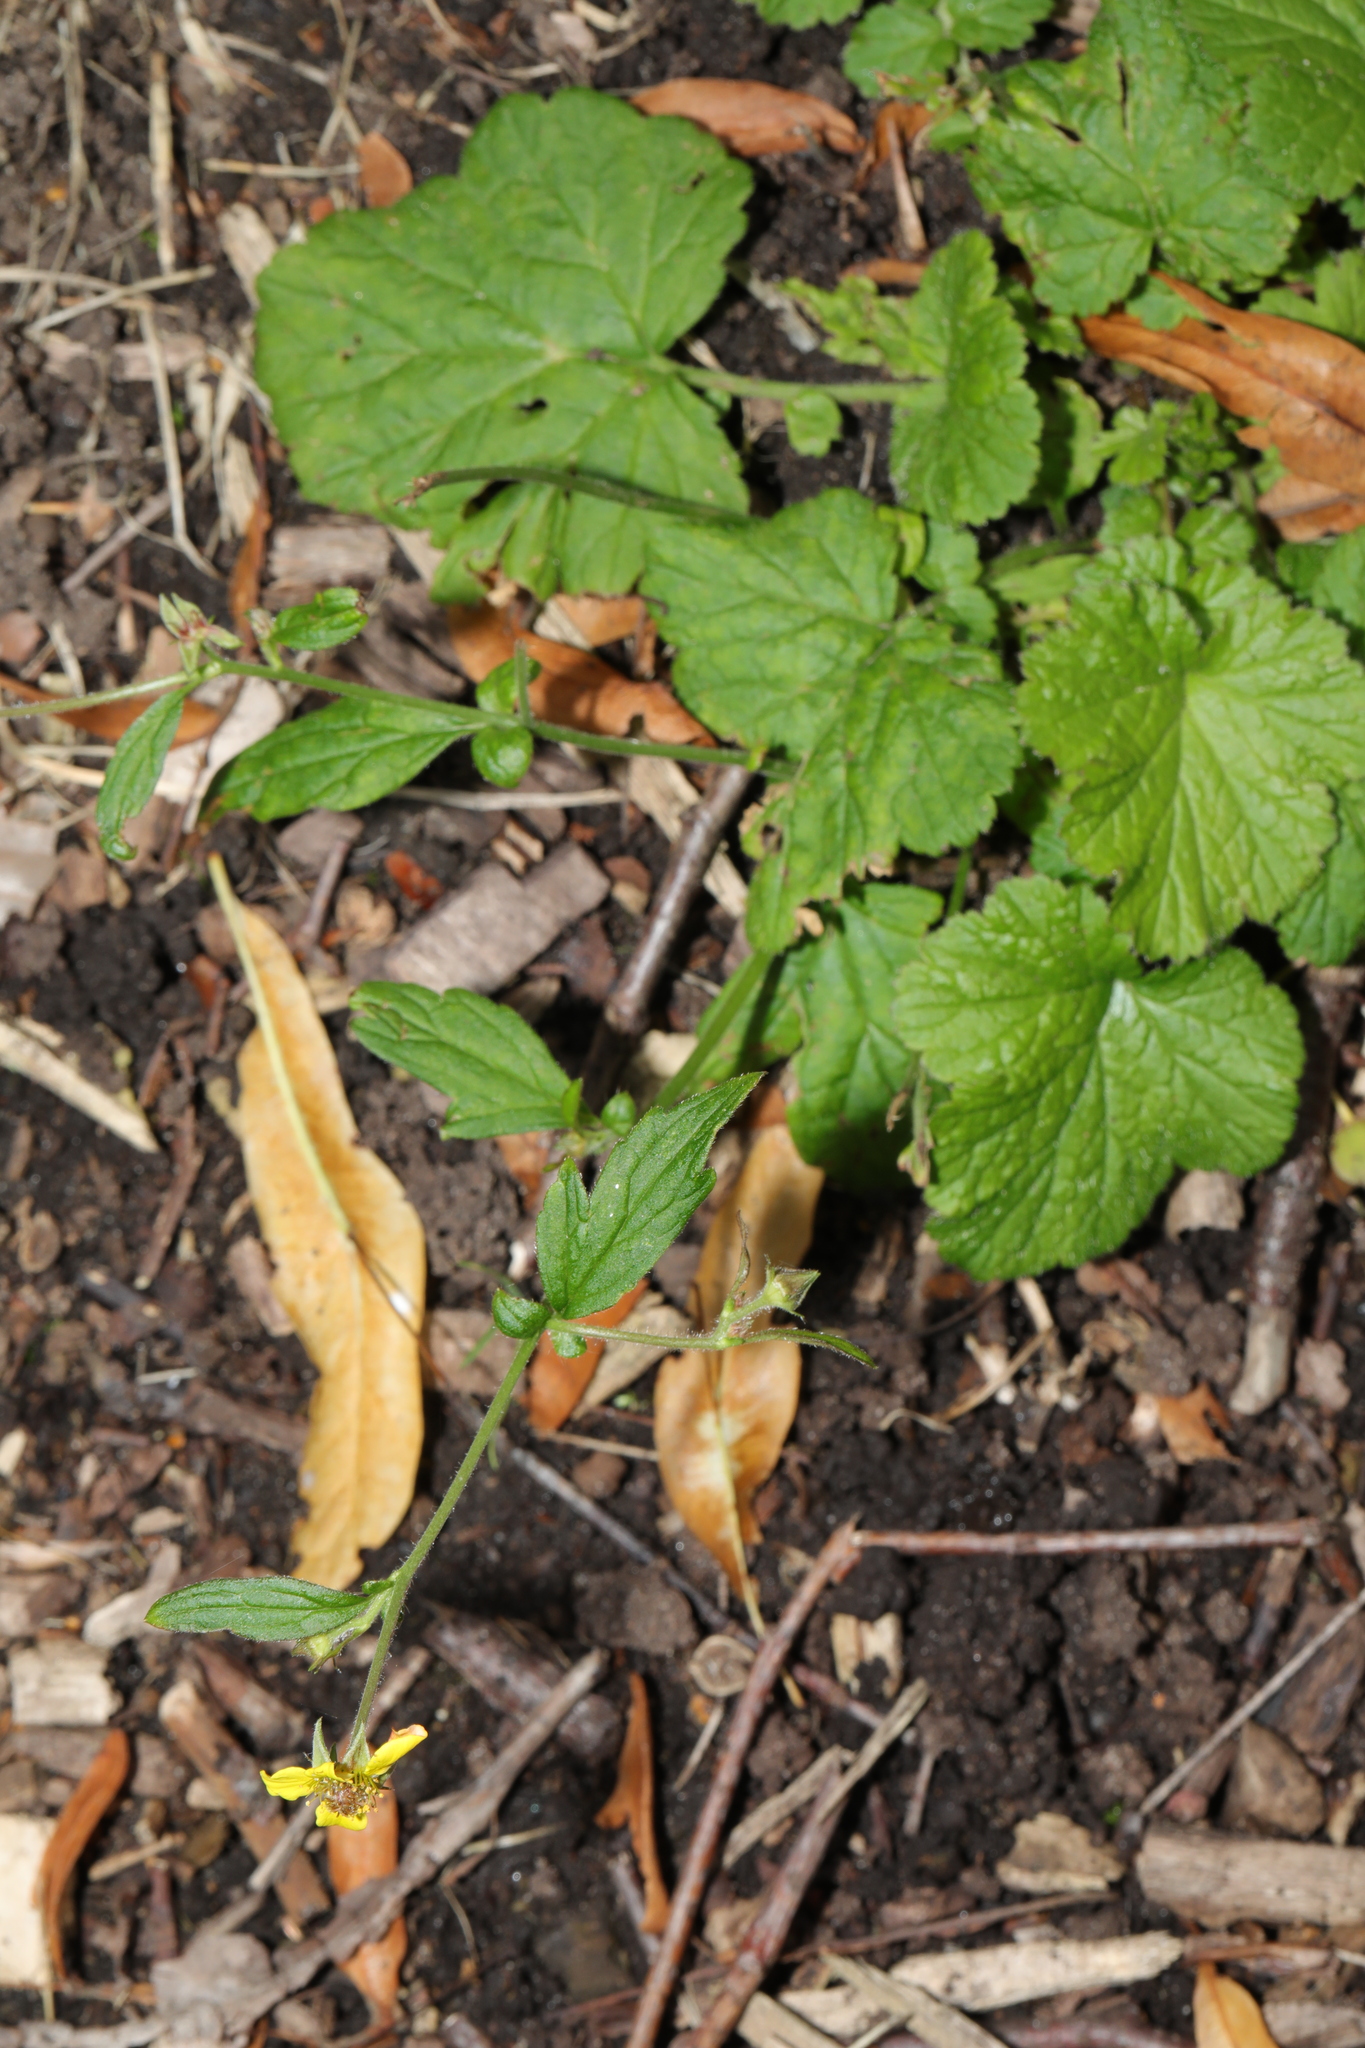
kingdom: Plantae
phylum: Tracheophyta
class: Magnoliopsida
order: Rosales
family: Rosaceae
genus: Geum
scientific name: Geum urbanum
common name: Wood avens
